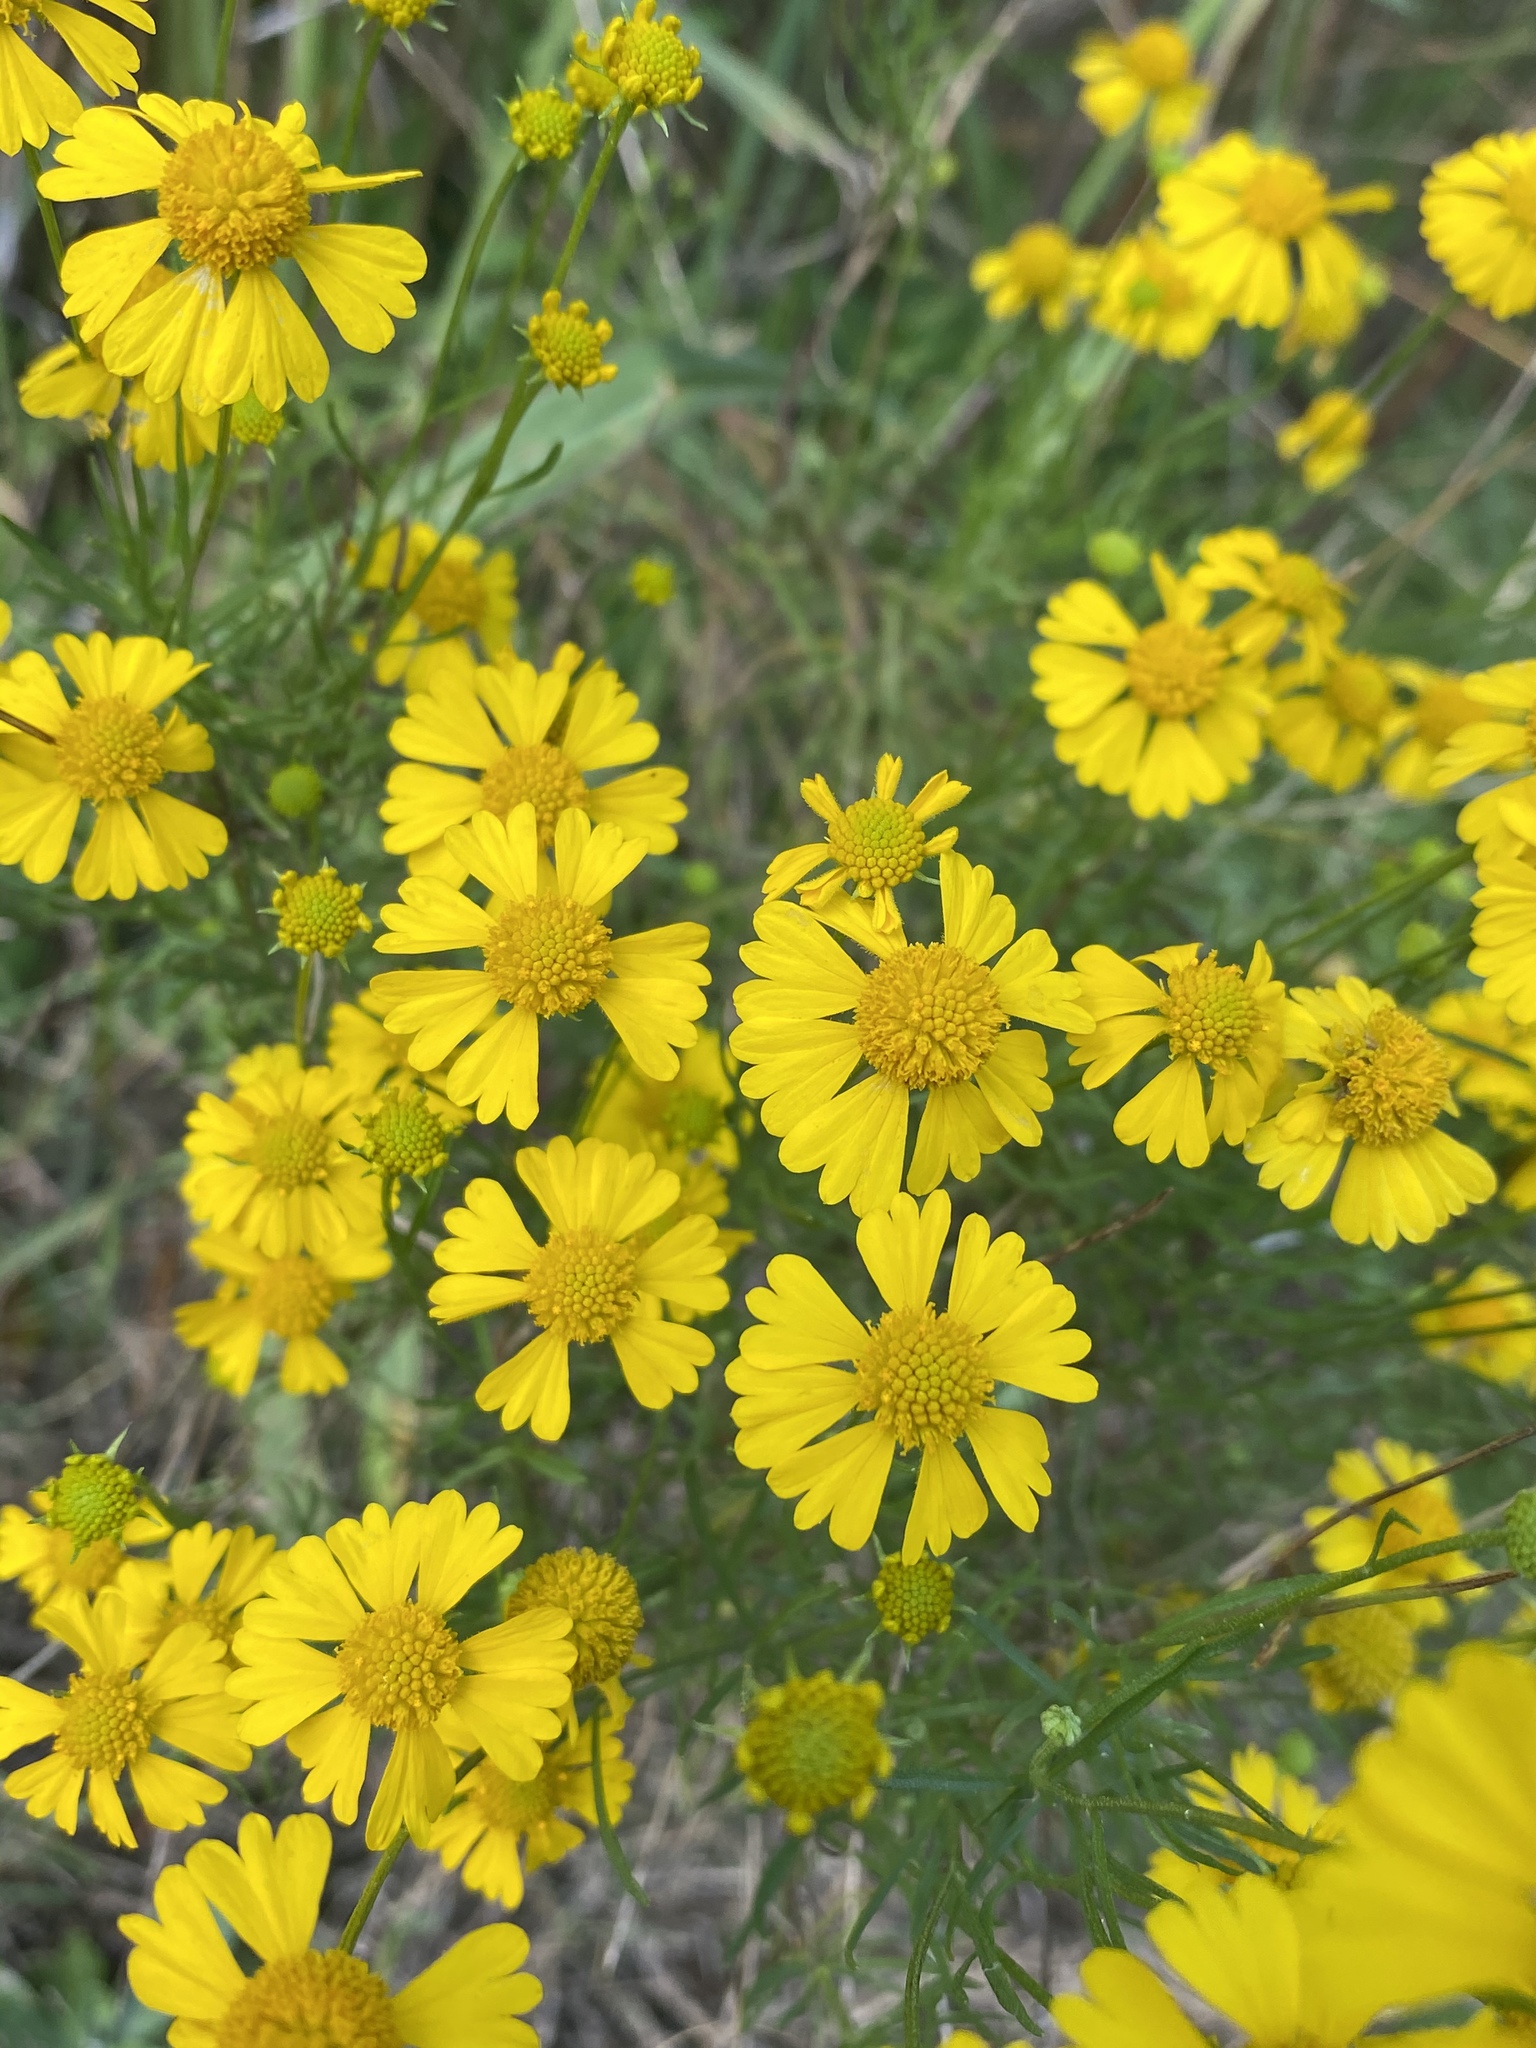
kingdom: Plantae
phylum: Tracheophyta
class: Magnoliopsida
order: Asterales
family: Asteraceae
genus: Helenium
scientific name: Helenium amarum
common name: Bitter sneezeweed
